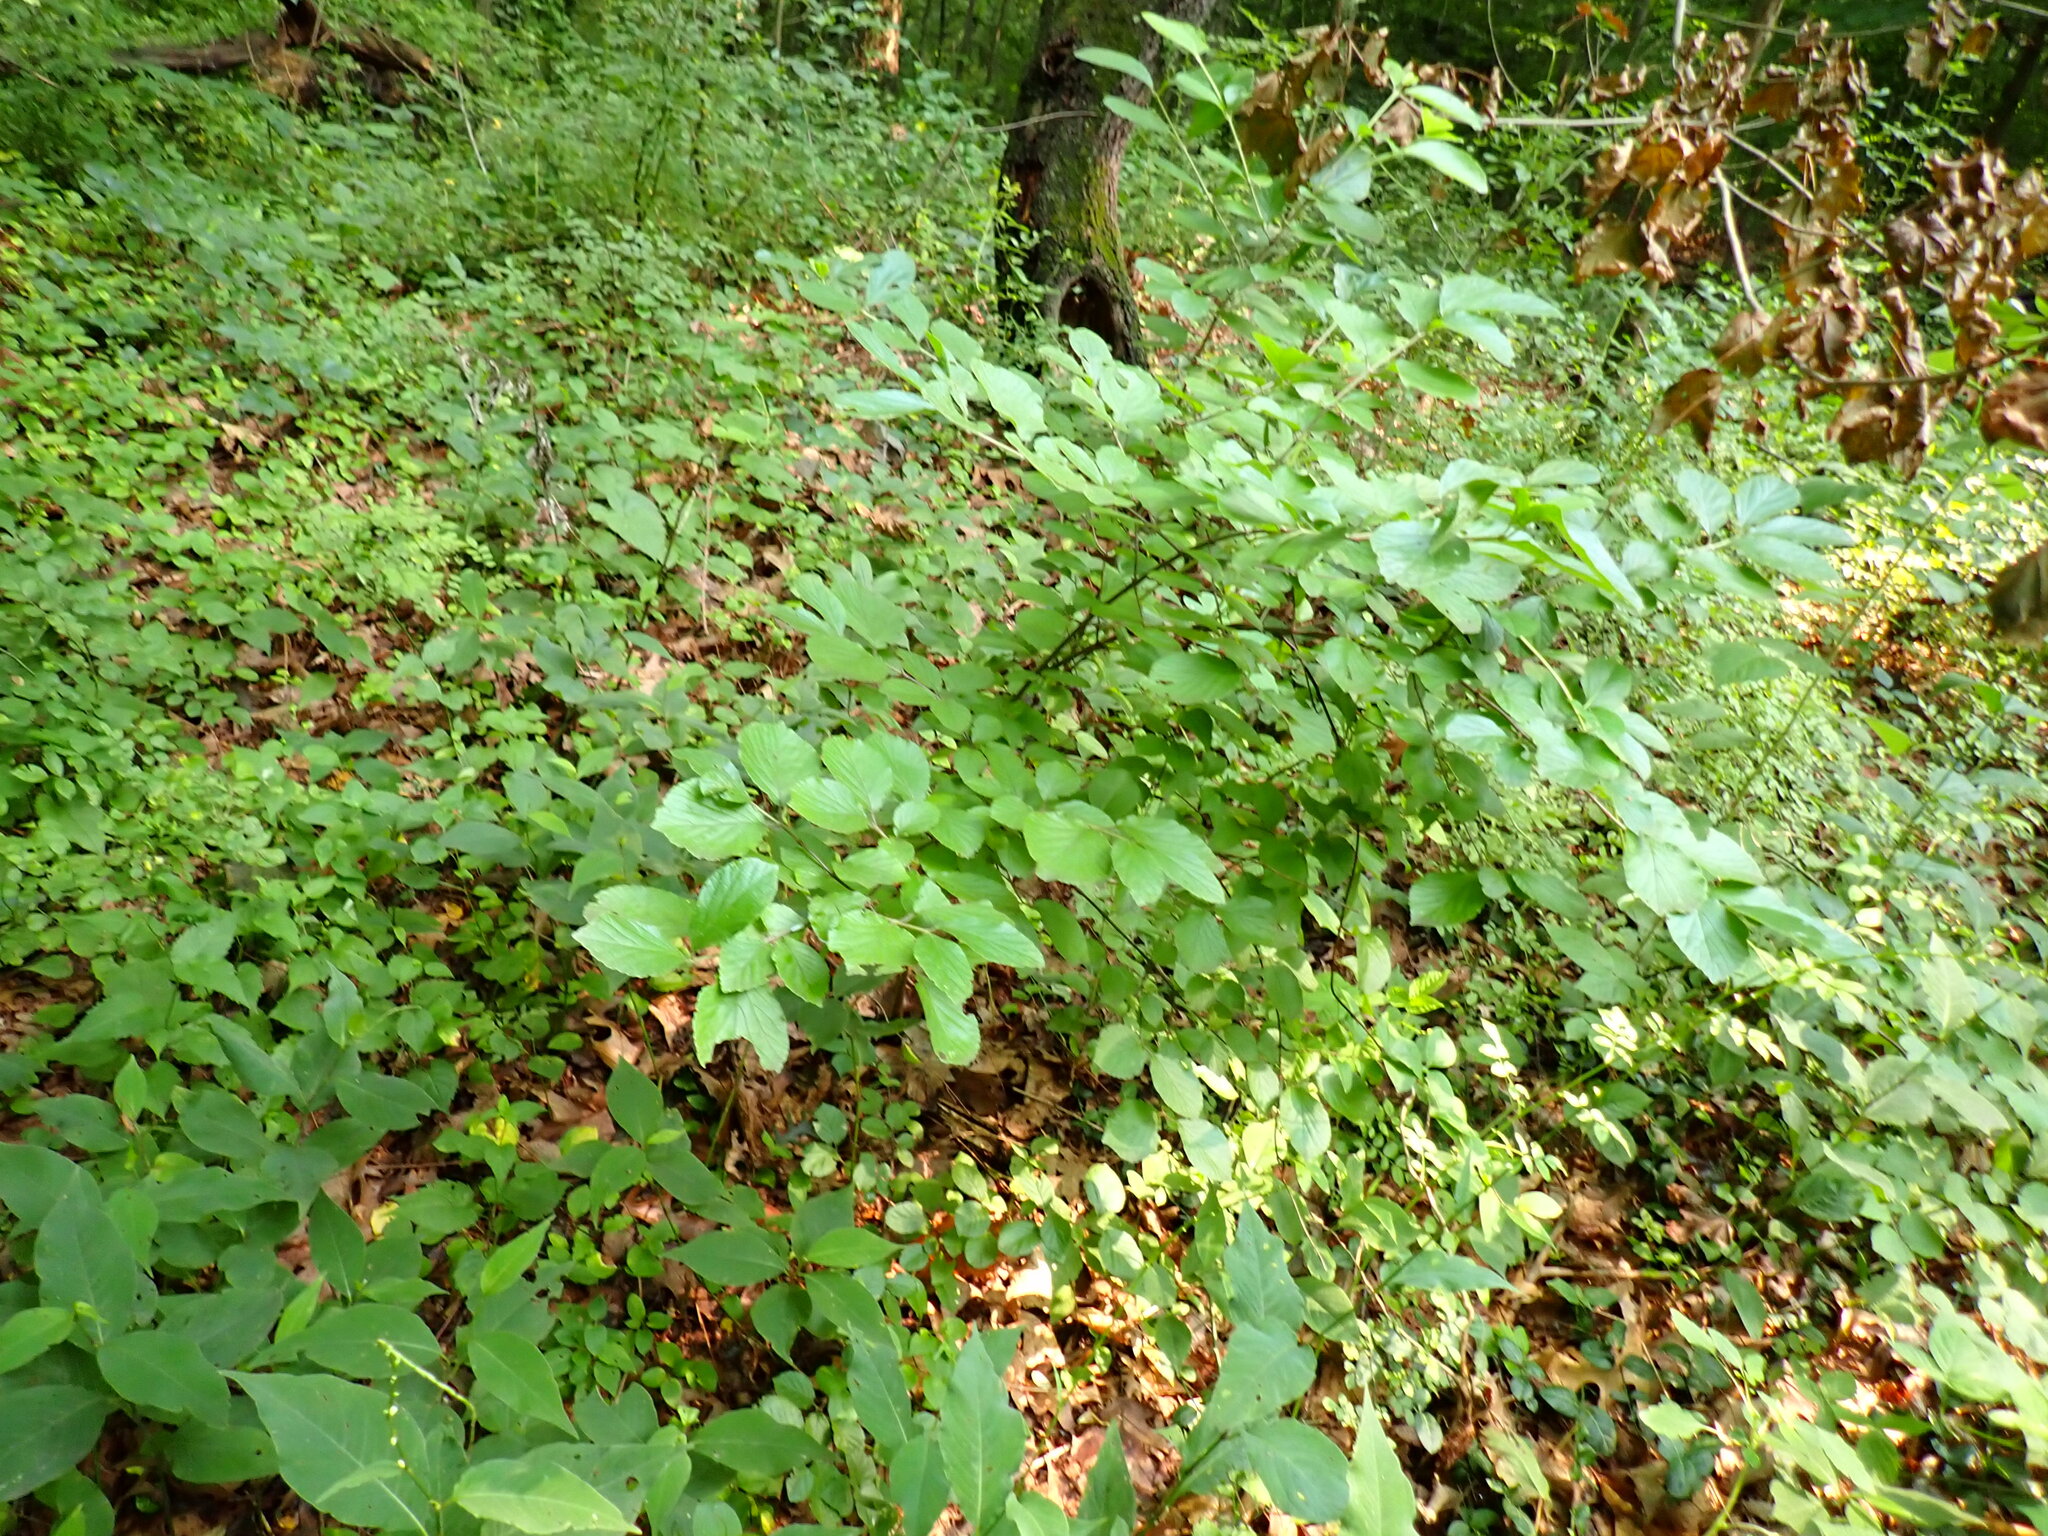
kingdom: Plantae
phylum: Tracheophyta
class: Magnoliopsida
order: Dipsacales
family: Viburnaceae
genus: Viburnum
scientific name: Viburnum dilatatum
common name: Linden arrowwood
